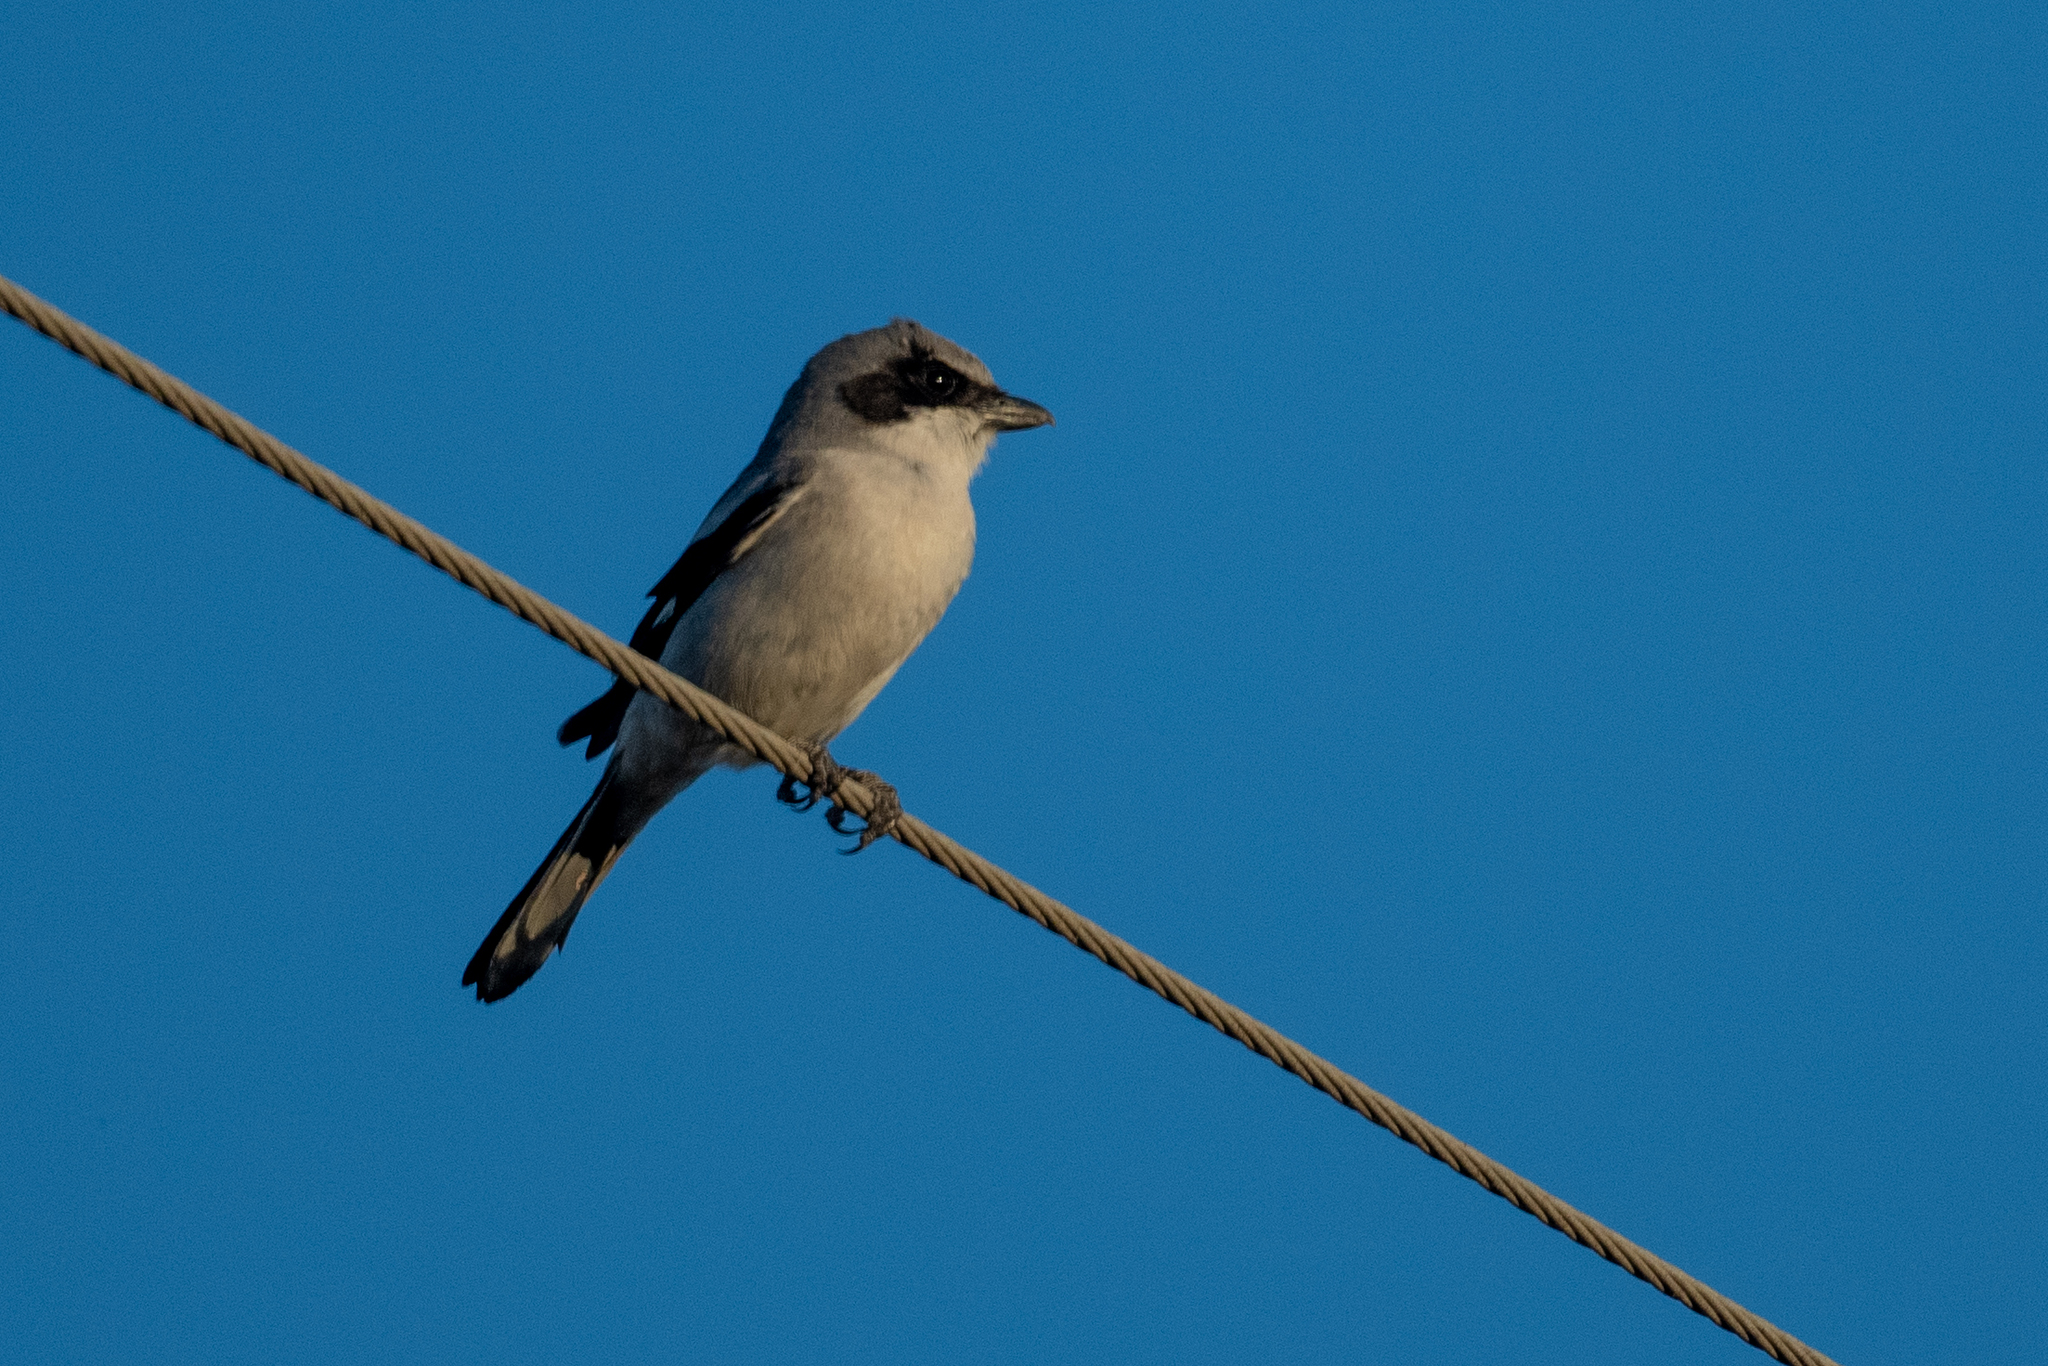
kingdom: Animalia
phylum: Chordata
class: Aves
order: Passeriformes
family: Laniidae
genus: Lanius
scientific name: Lanius ludovicianus
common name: Loggerhead shrike
